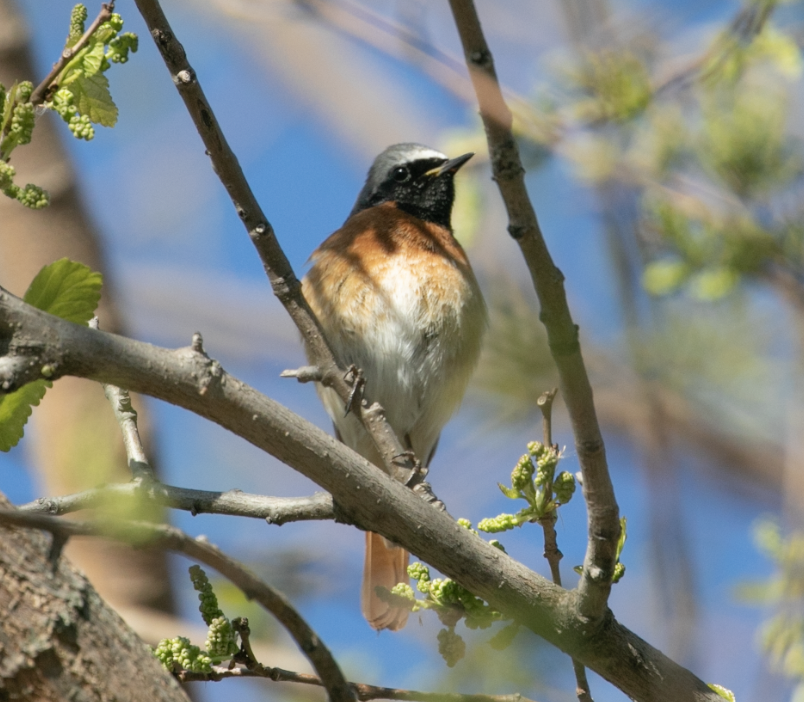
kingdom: Animalia
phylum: Chordata
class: Aves
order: Passeriformes
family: Muscicapidae
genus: Phoenicurus
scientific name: Phoenicurus phoenicurus
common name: Common redstart
